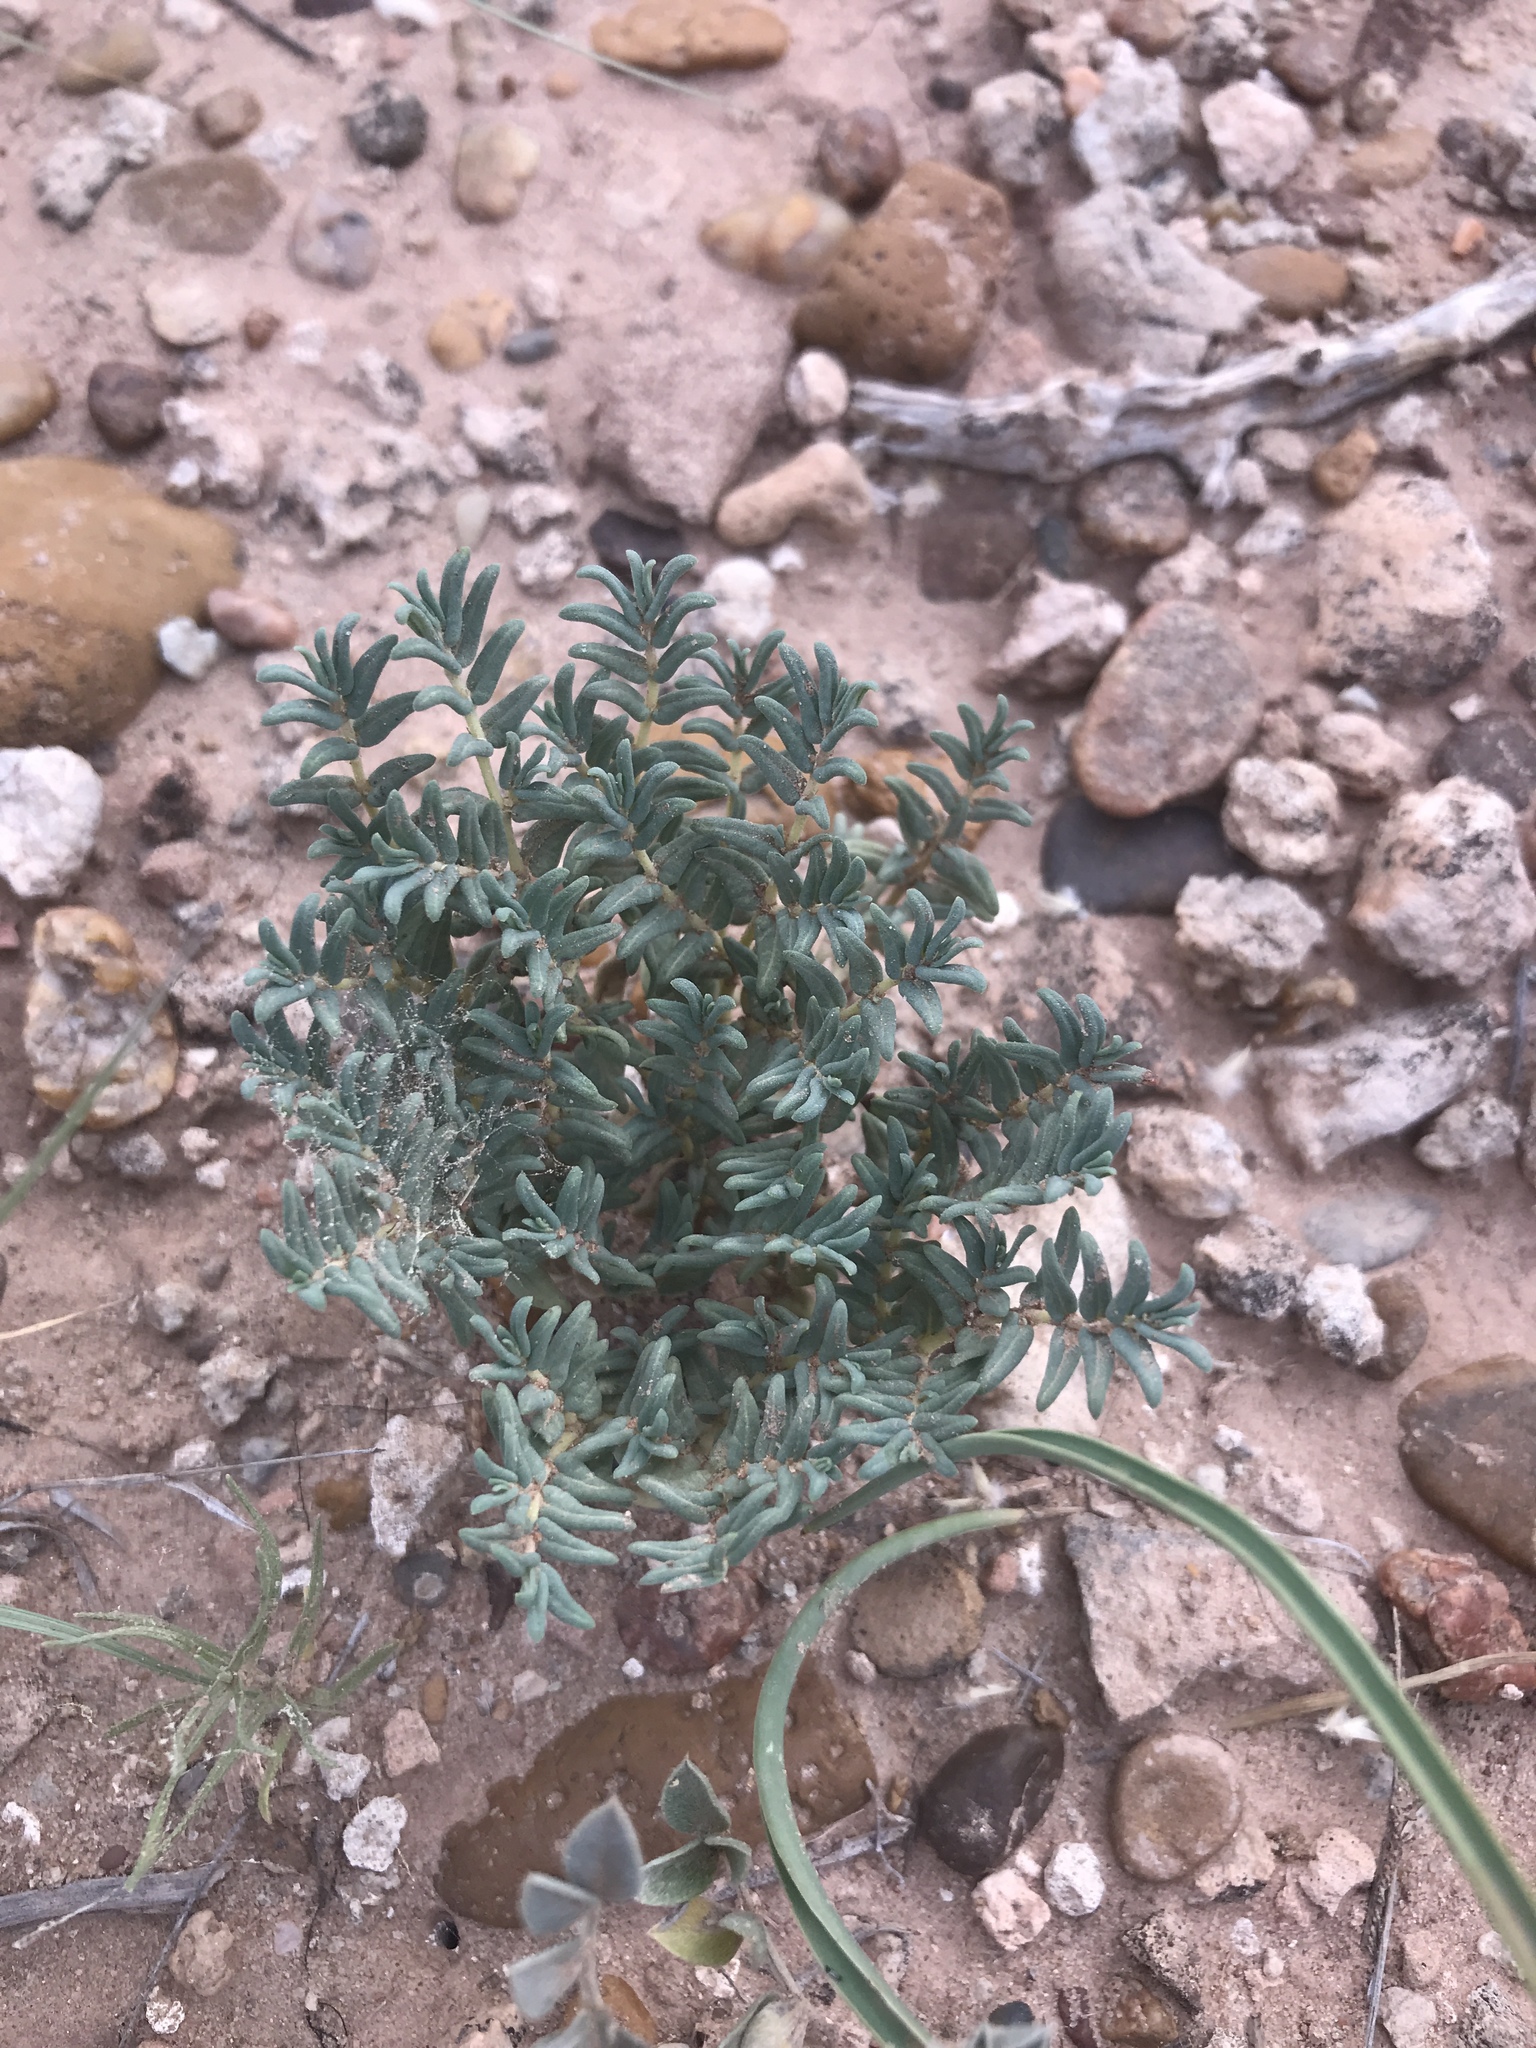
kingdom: Plantae
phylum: Tracheophyta
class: Magnoliopsida
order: Malpighiales
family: Euphorbiaceae
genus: Euphorbia
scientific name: Euphorbia lata
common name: Hoary euphorbia
